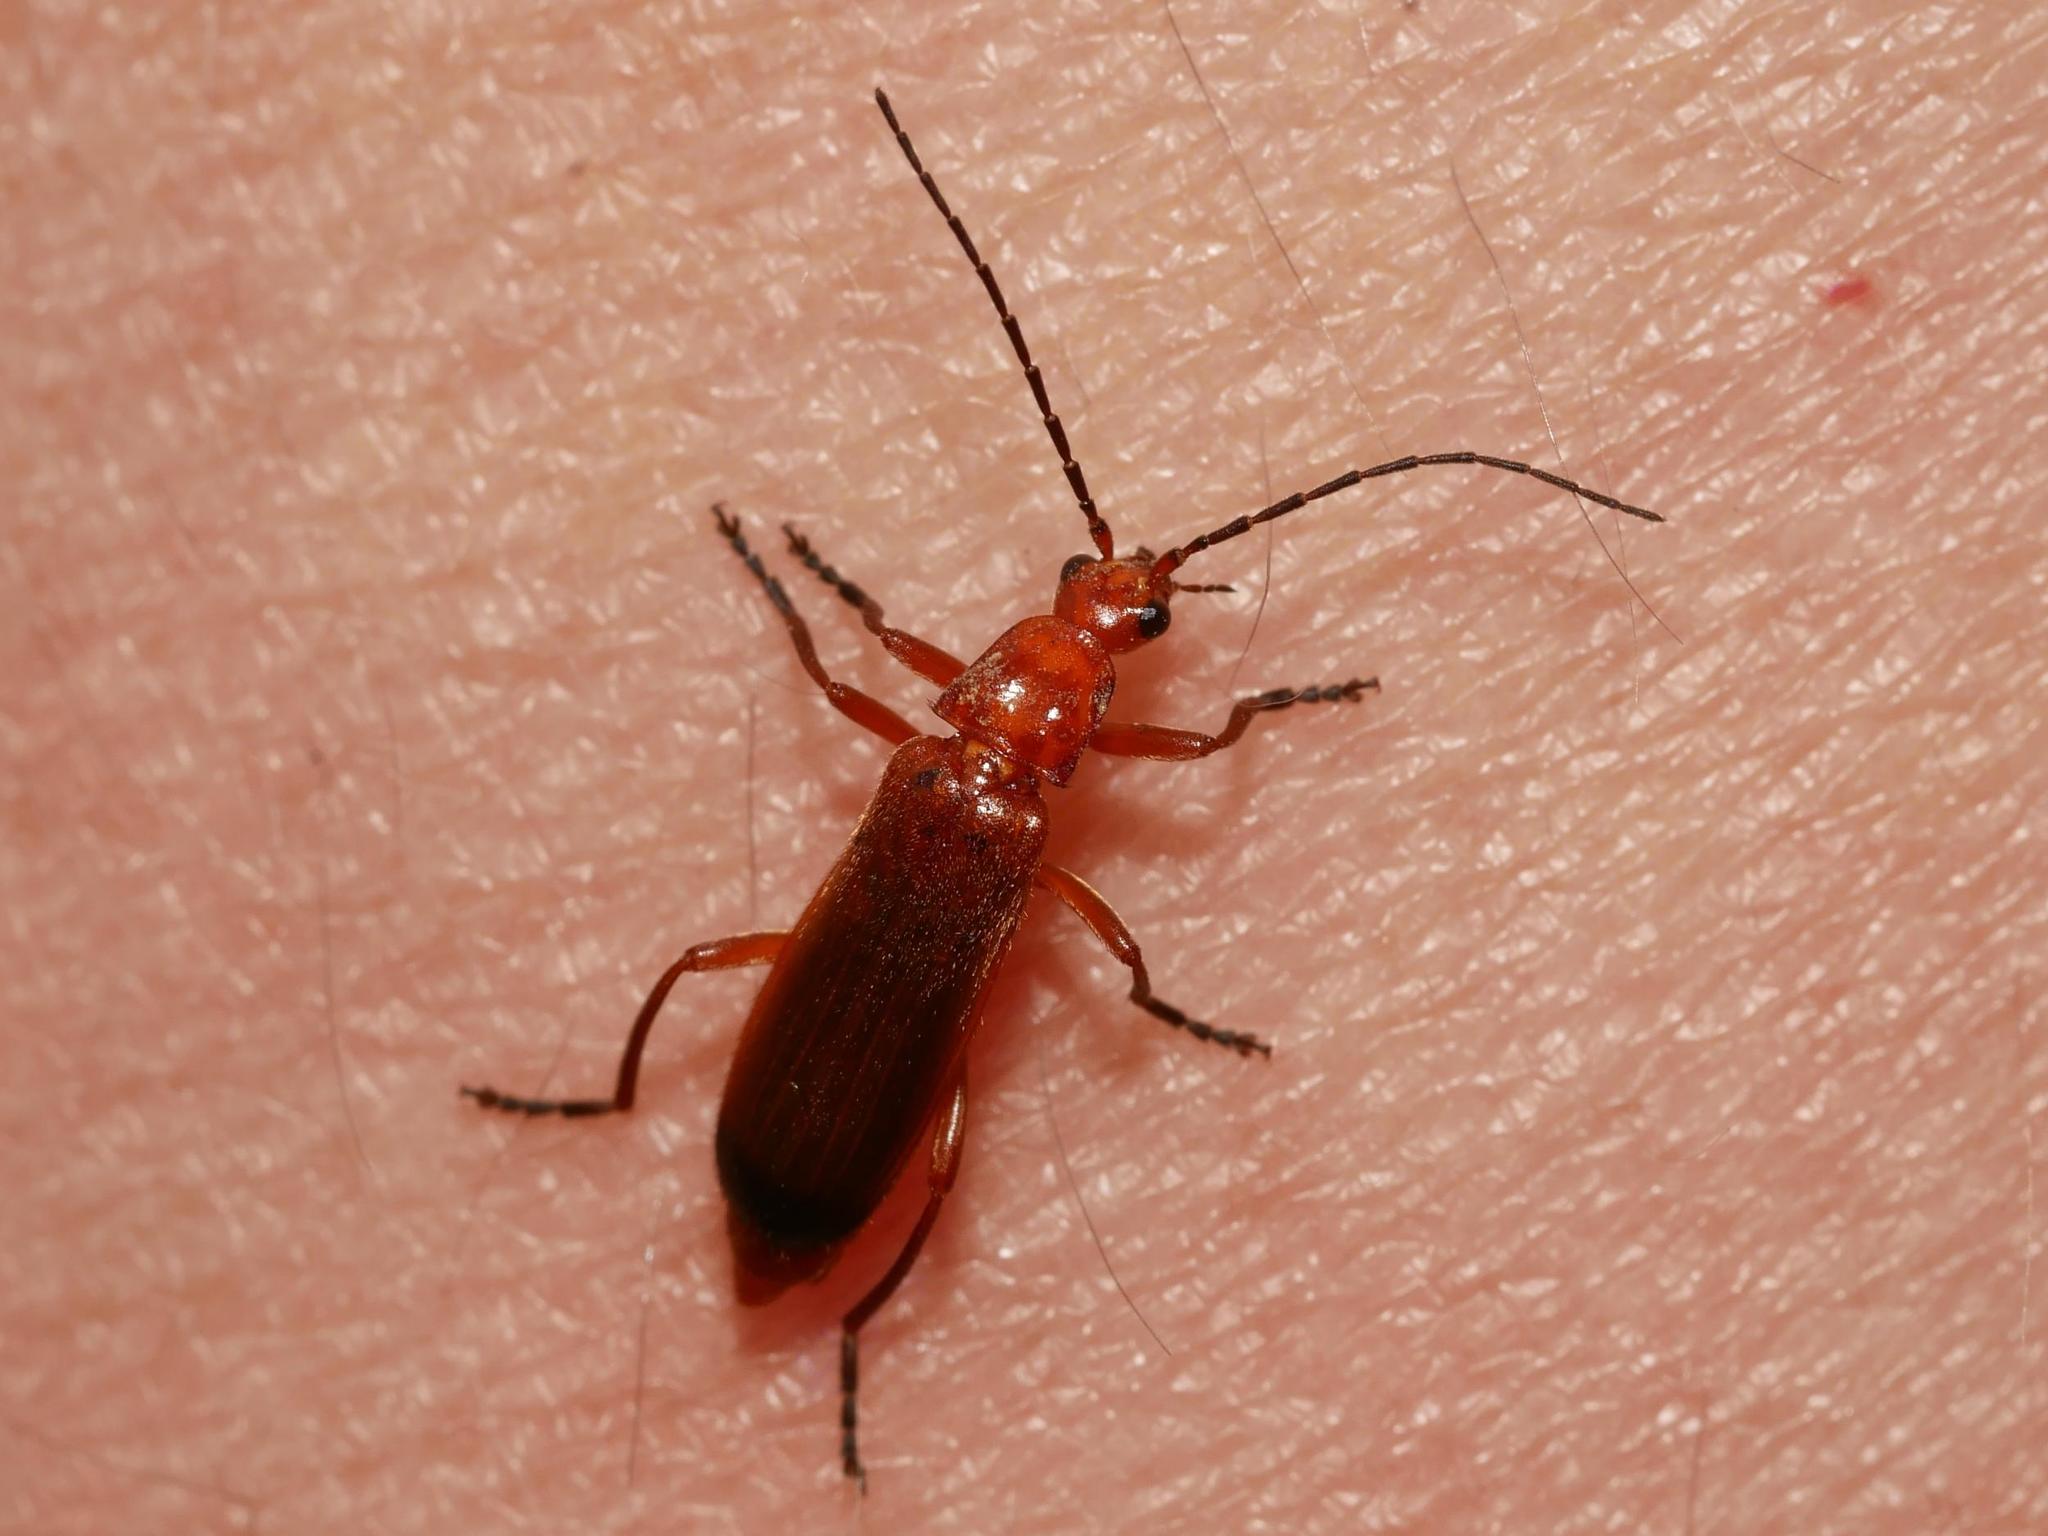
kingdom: Animalia
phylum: Arthropoda
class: Insecta
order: Coleoptera
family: Cantharidae
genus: Rhagonycha
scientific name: Rhagonycha fulva
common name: Common red soldier beetle
